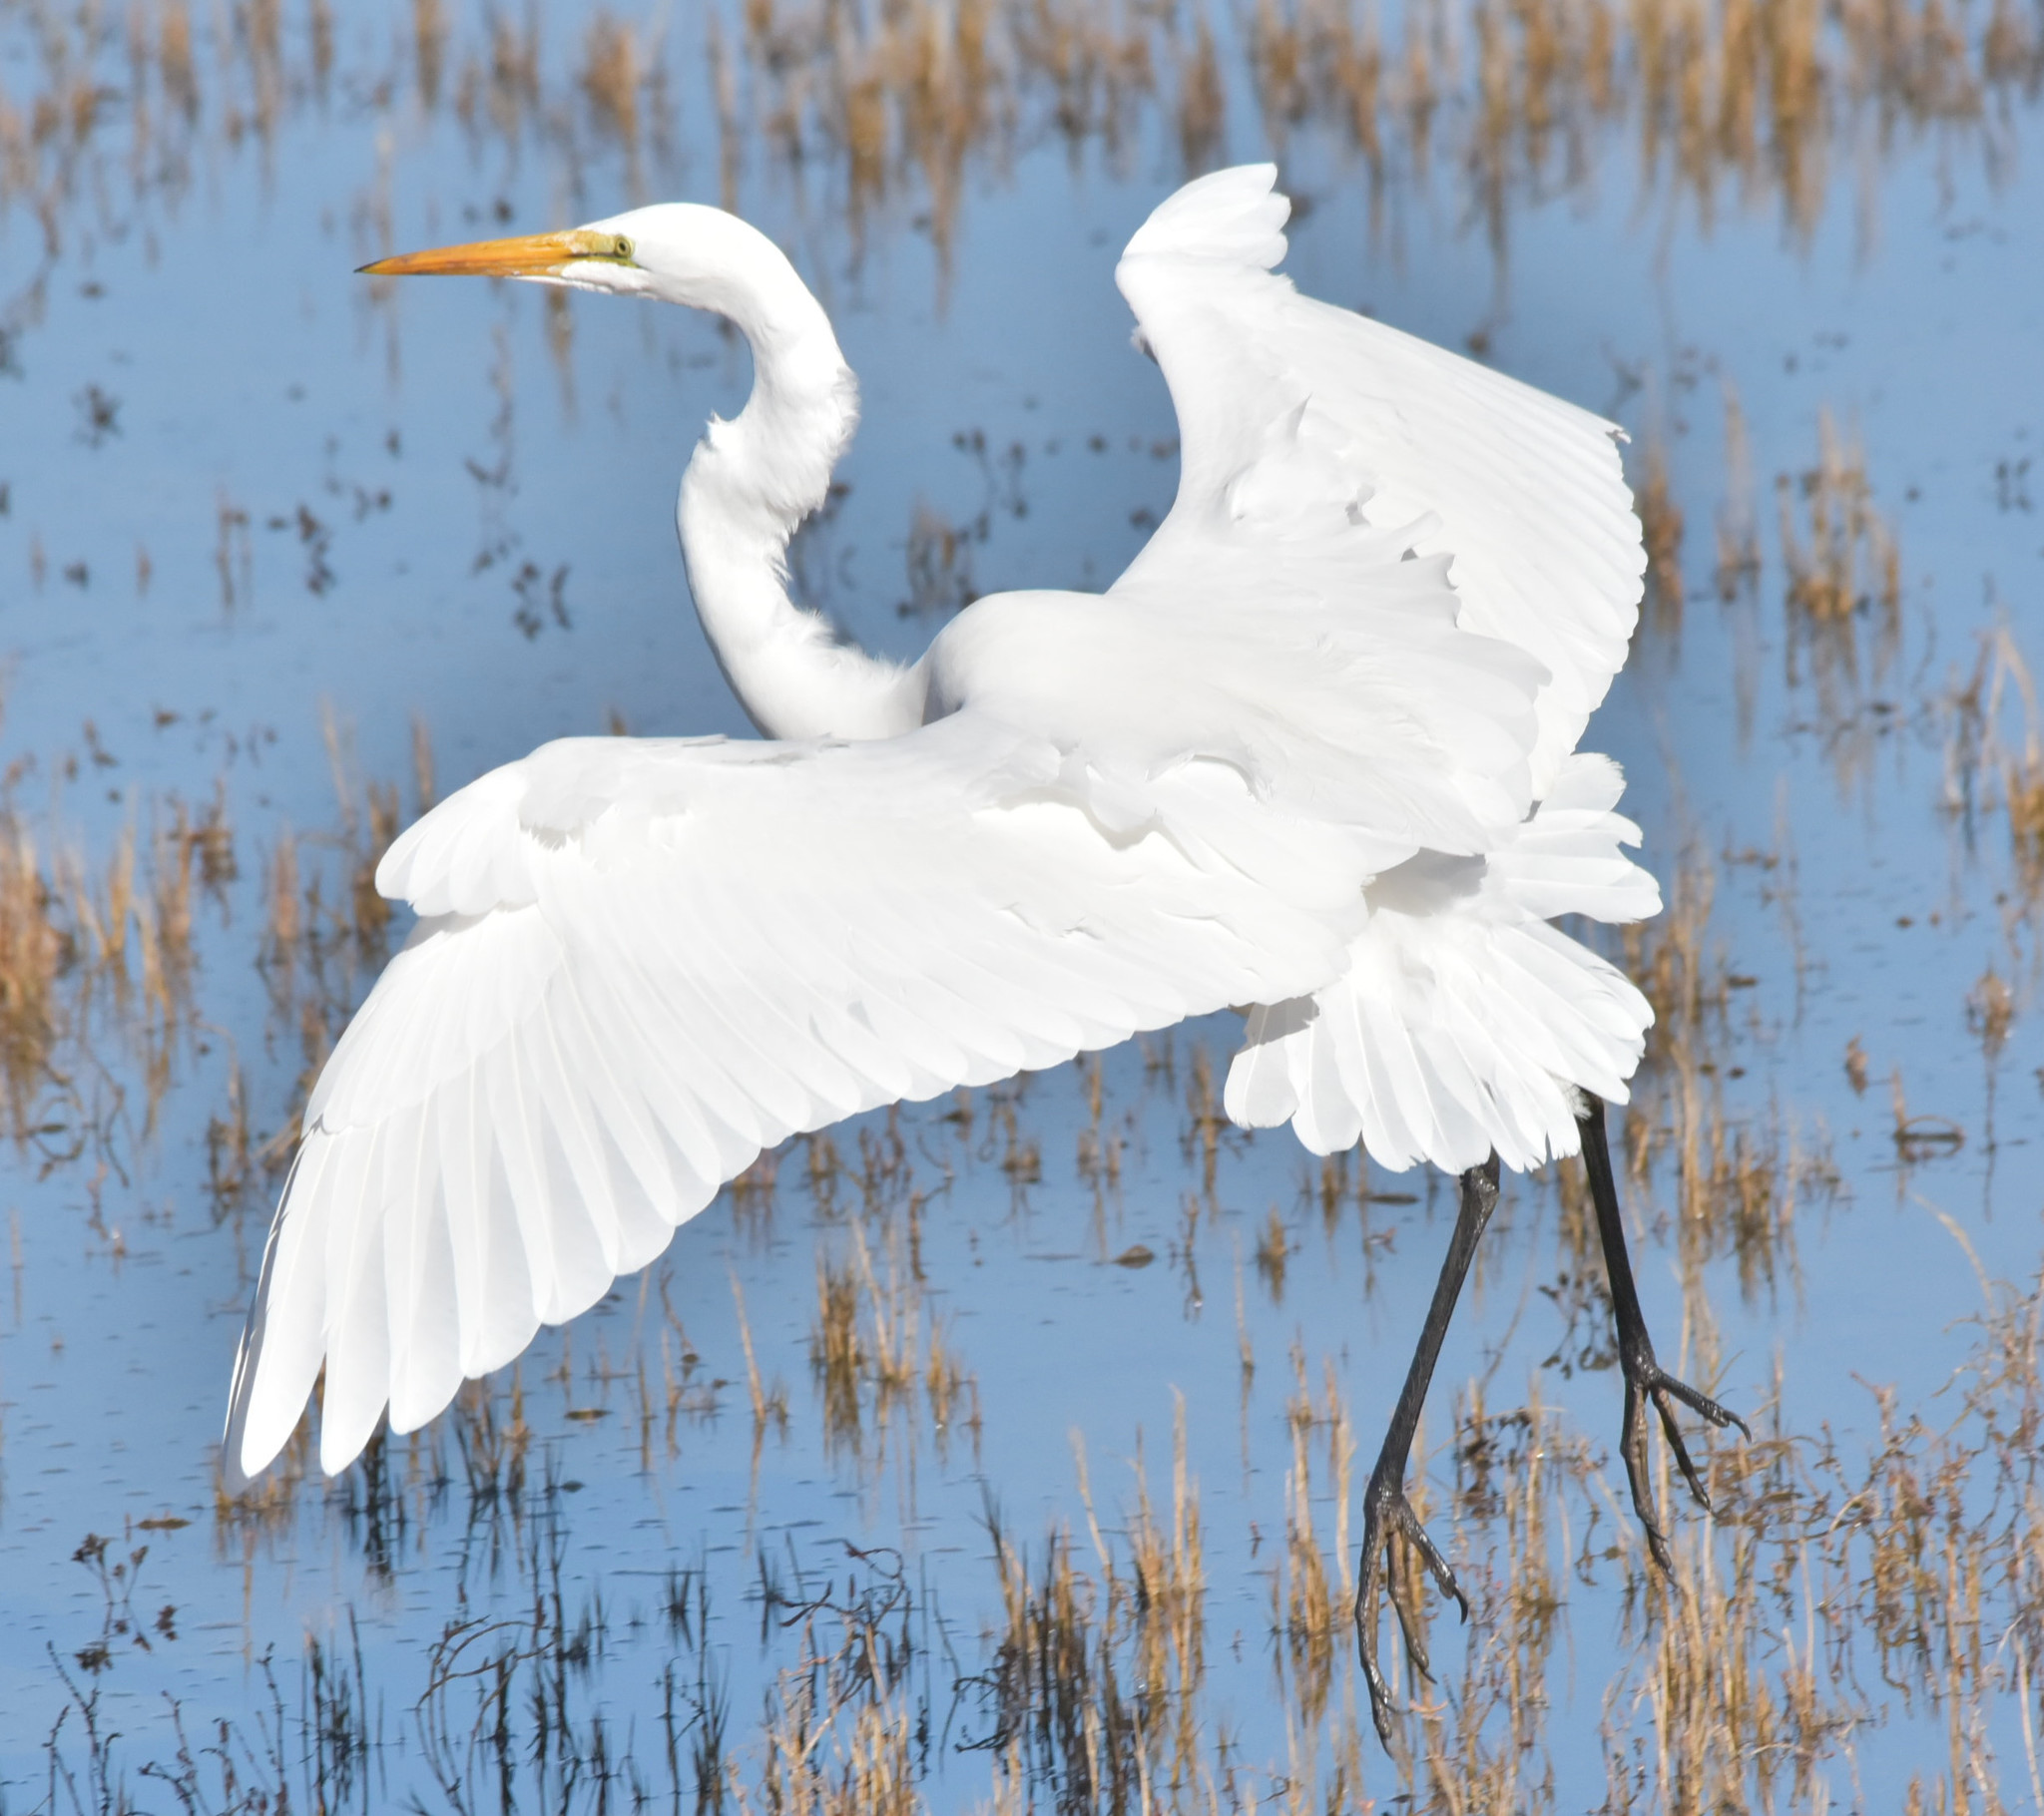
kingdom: Animalia
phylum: Chordata
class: Aves
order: Pelecaniformes
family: Ardeidae
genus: Ardea
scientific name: Ardea alba
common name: Great egret
